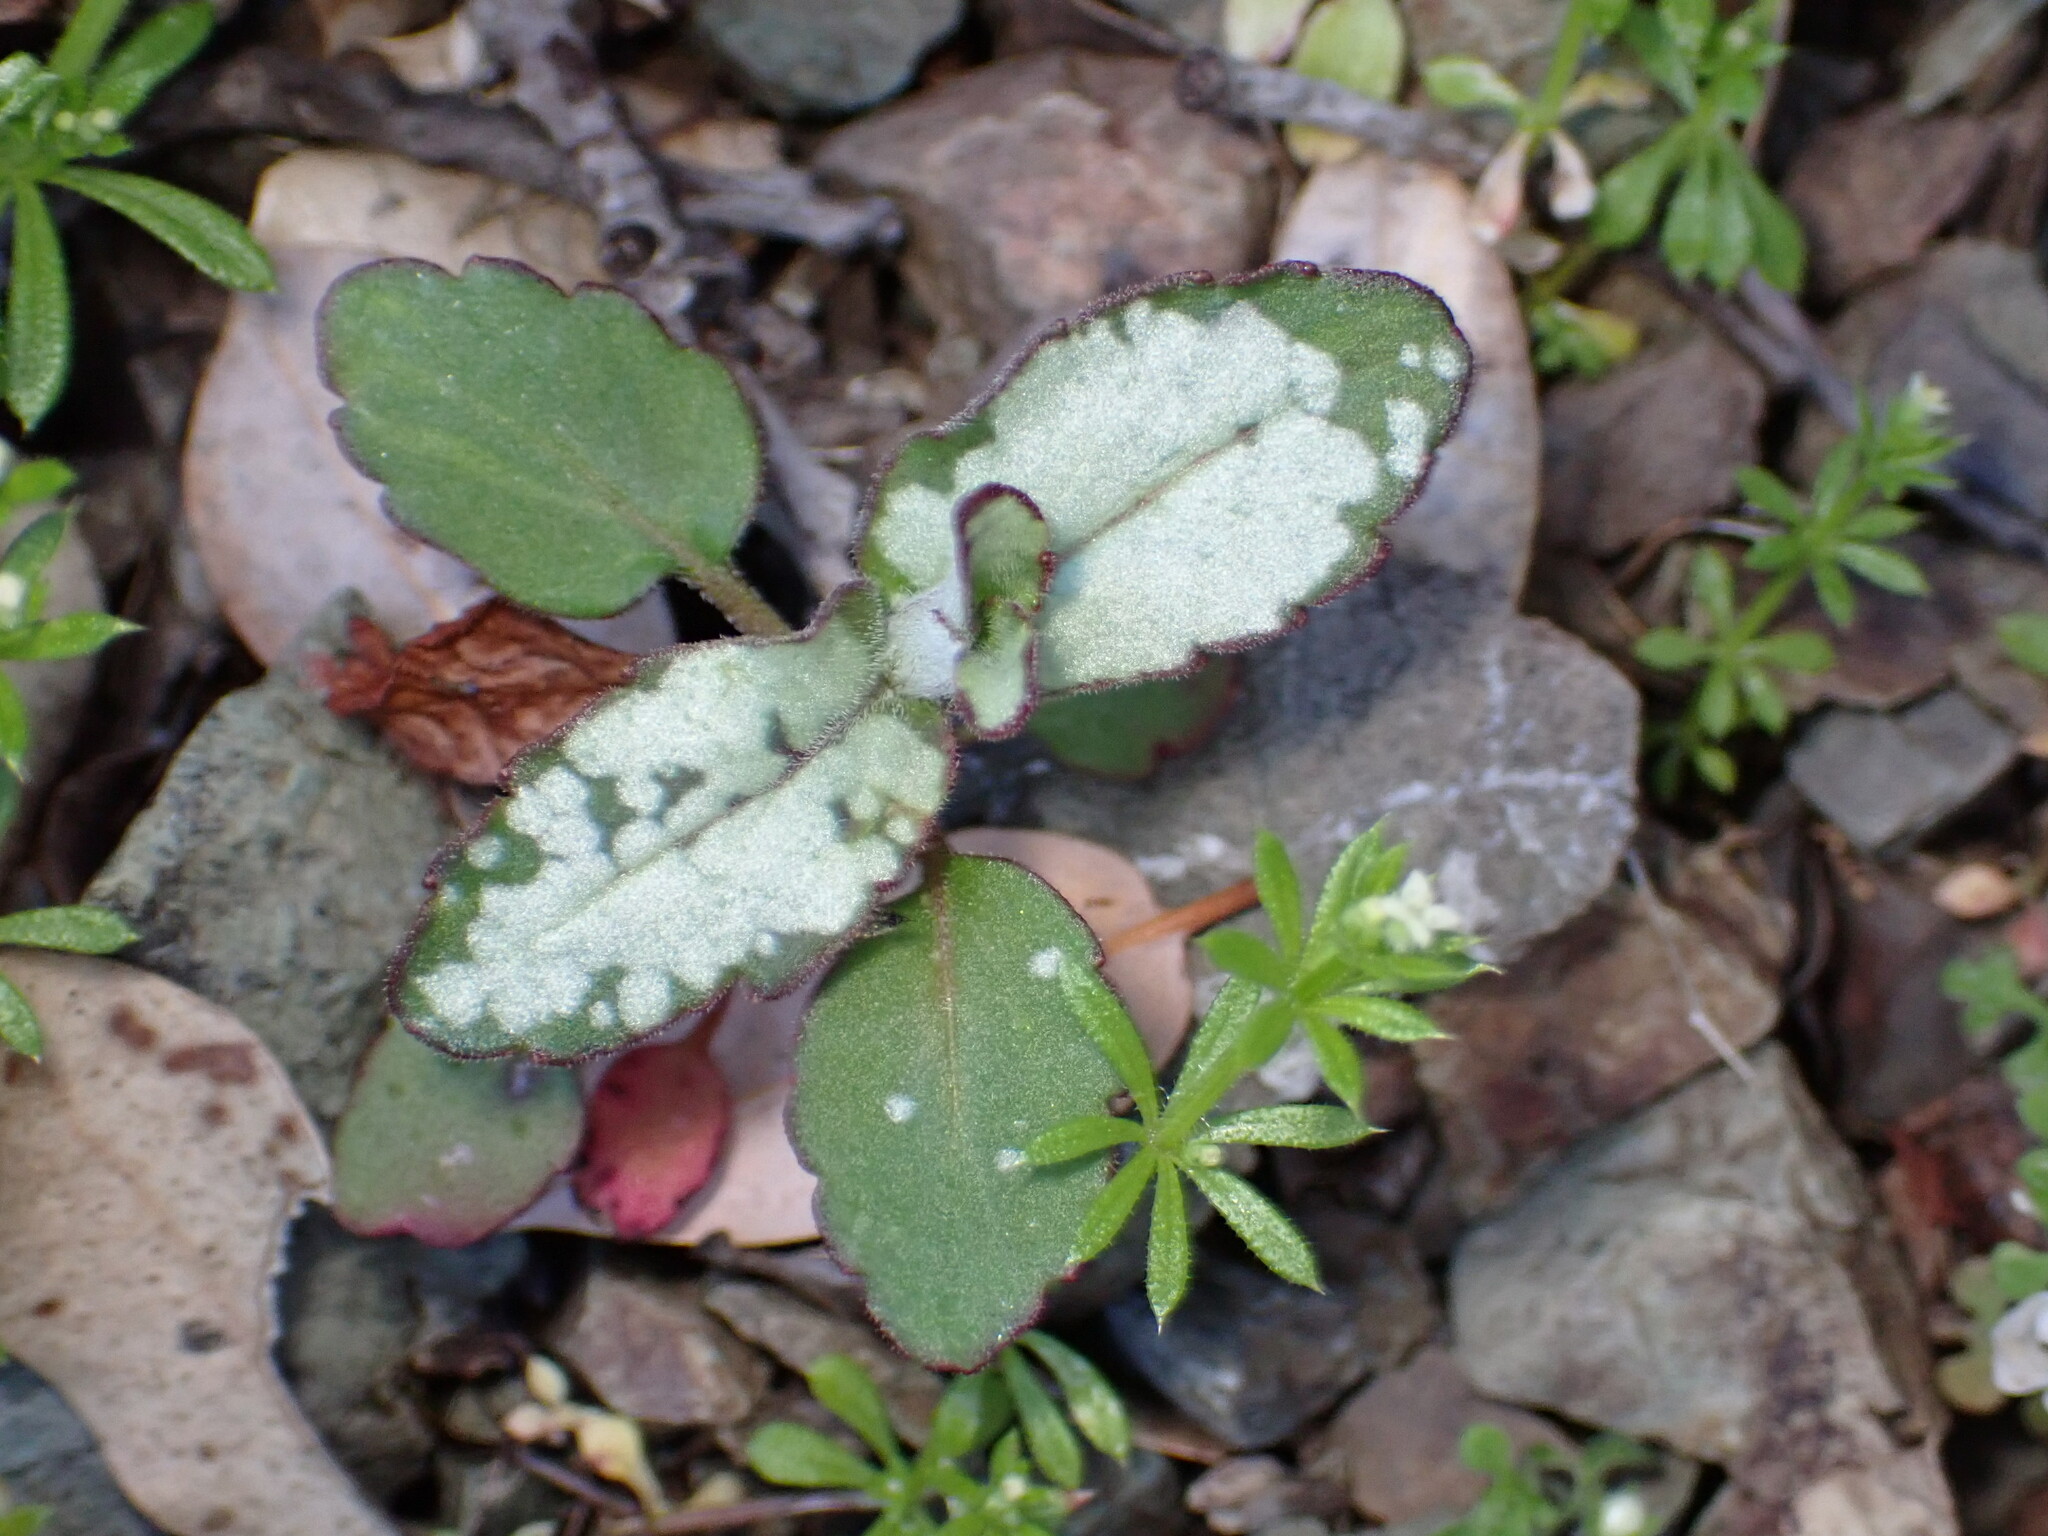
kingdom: Plantae
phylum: Tracheophyta
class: Magnoliopsida
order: Lamiales
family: Plantaginaceae
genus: Collinsia
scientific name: Collinsia tinctoria
